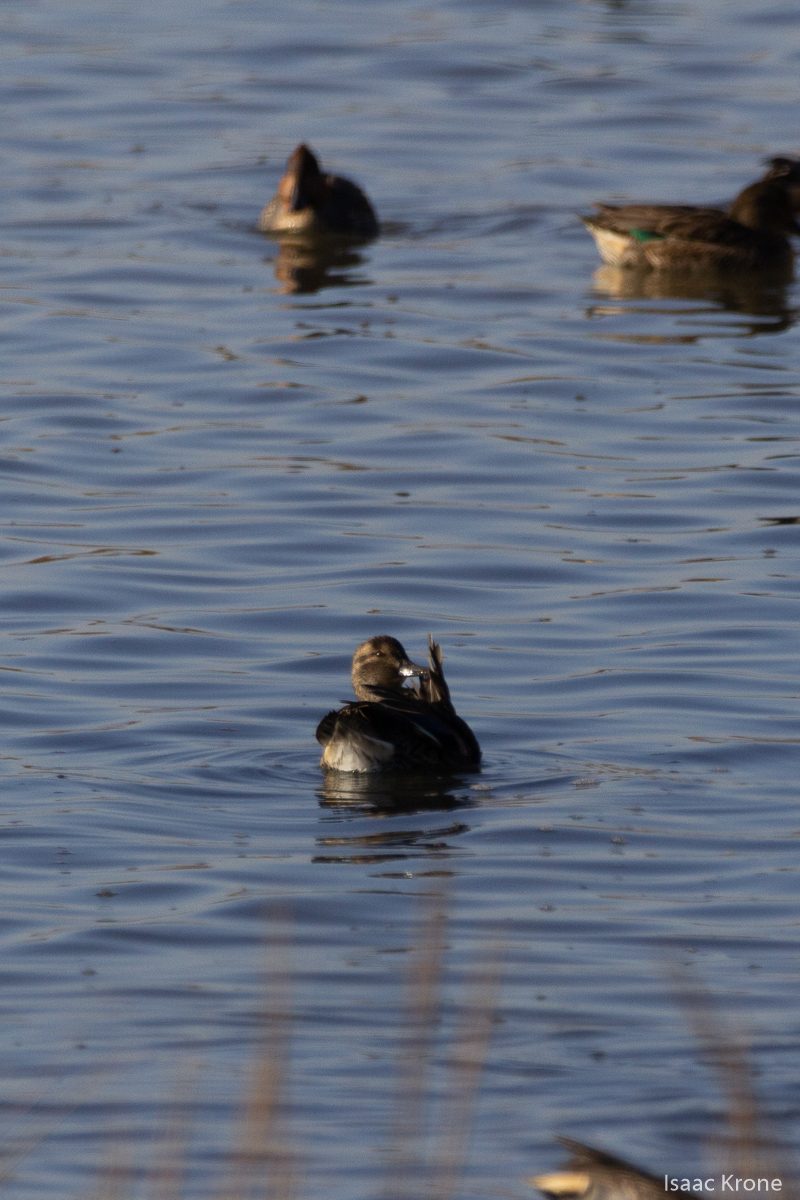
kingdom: Animalia
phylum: Chordata
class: Aves
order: Anseriformes
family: Anatidae
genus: Anas
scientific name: Anas crecca
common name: Eurasian teal
